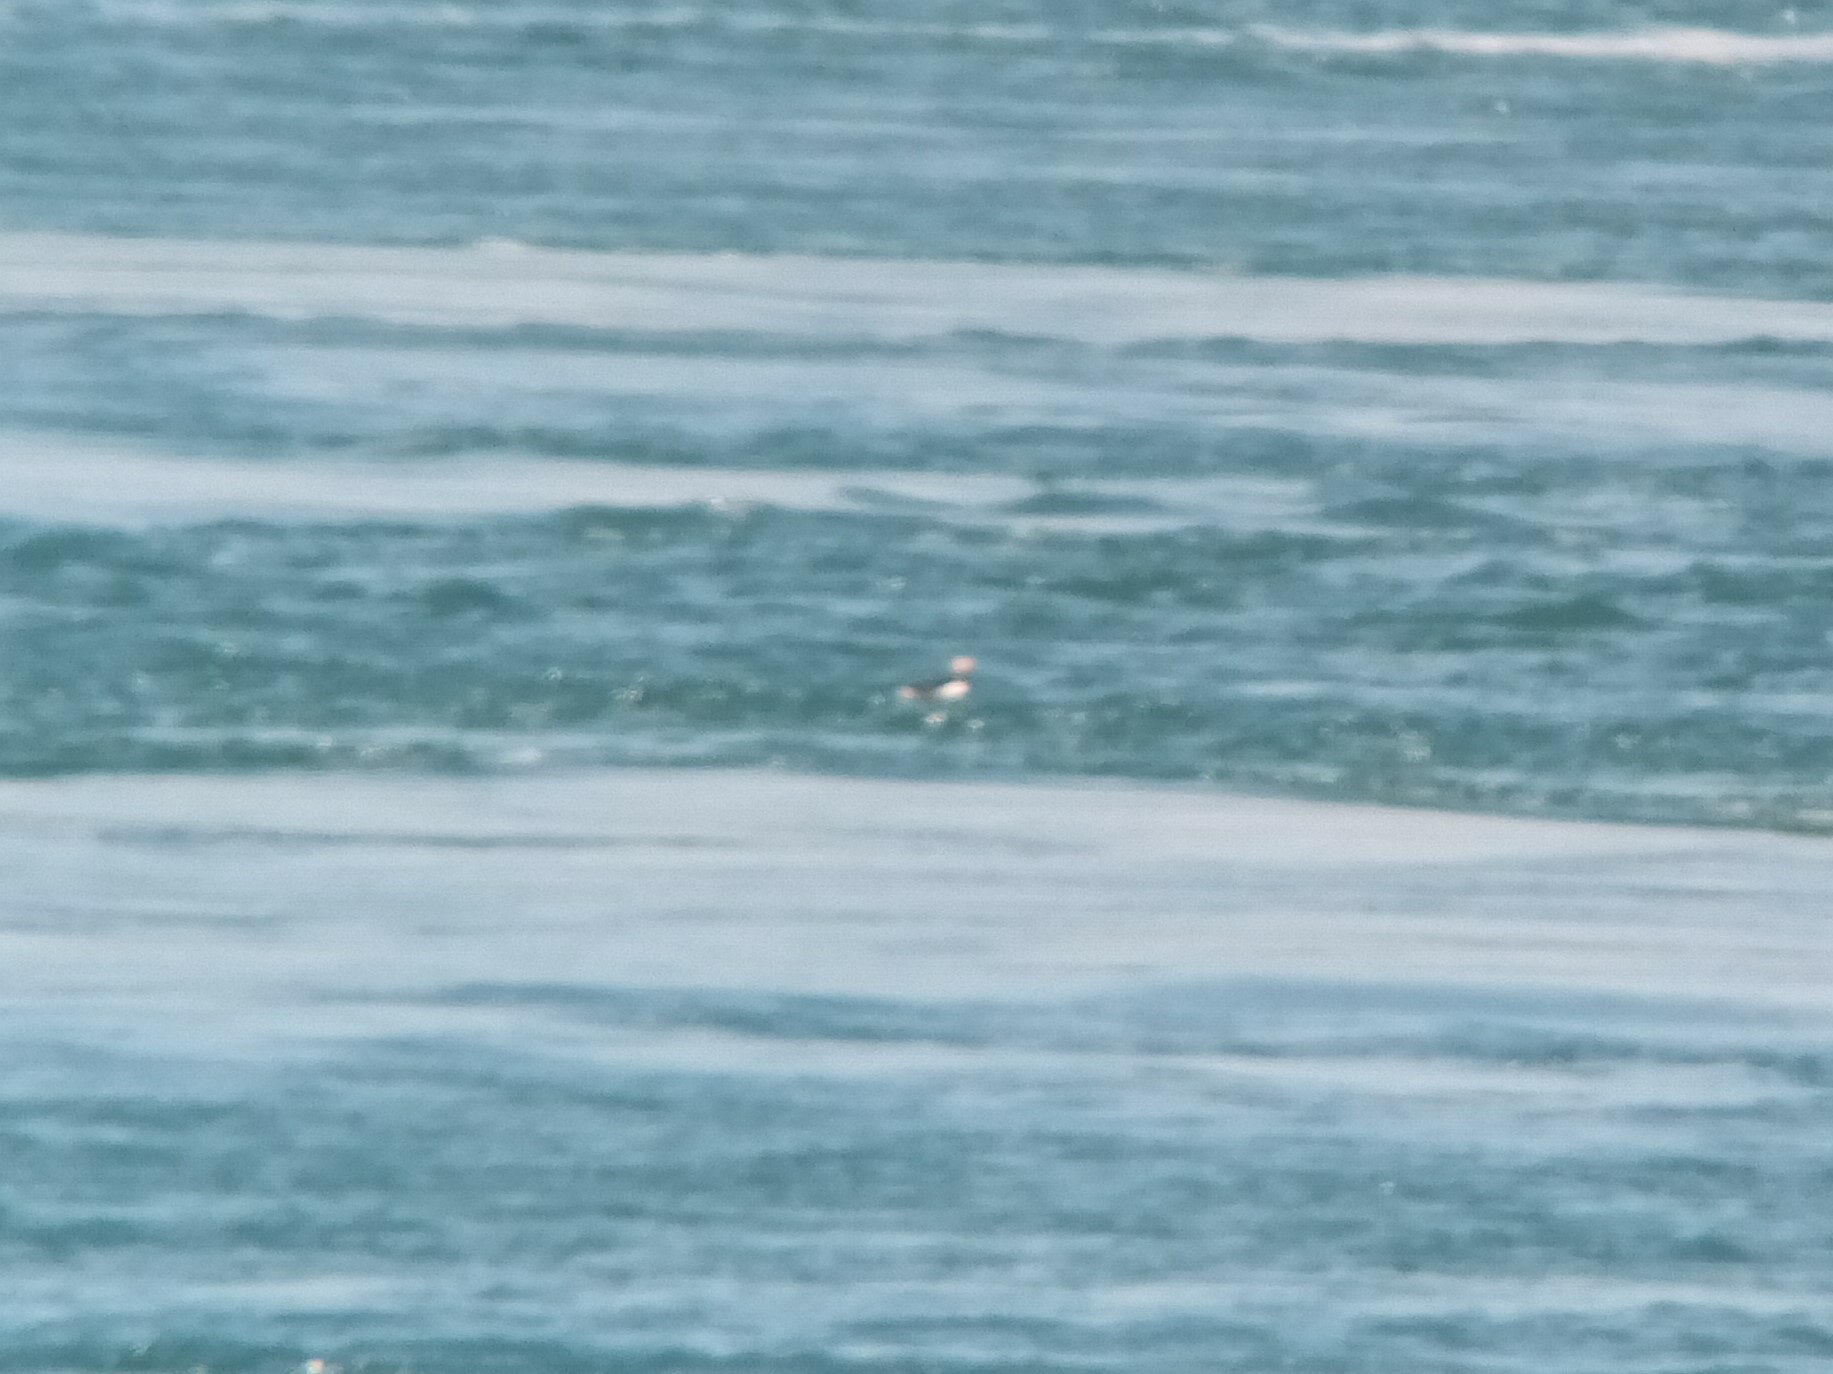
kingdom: Animalia
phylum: Chordata
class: Aves
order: Charadriiformes
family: Alcidae
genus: Fratercula
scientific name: Fratercula arctica
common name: Atlantic puffin
